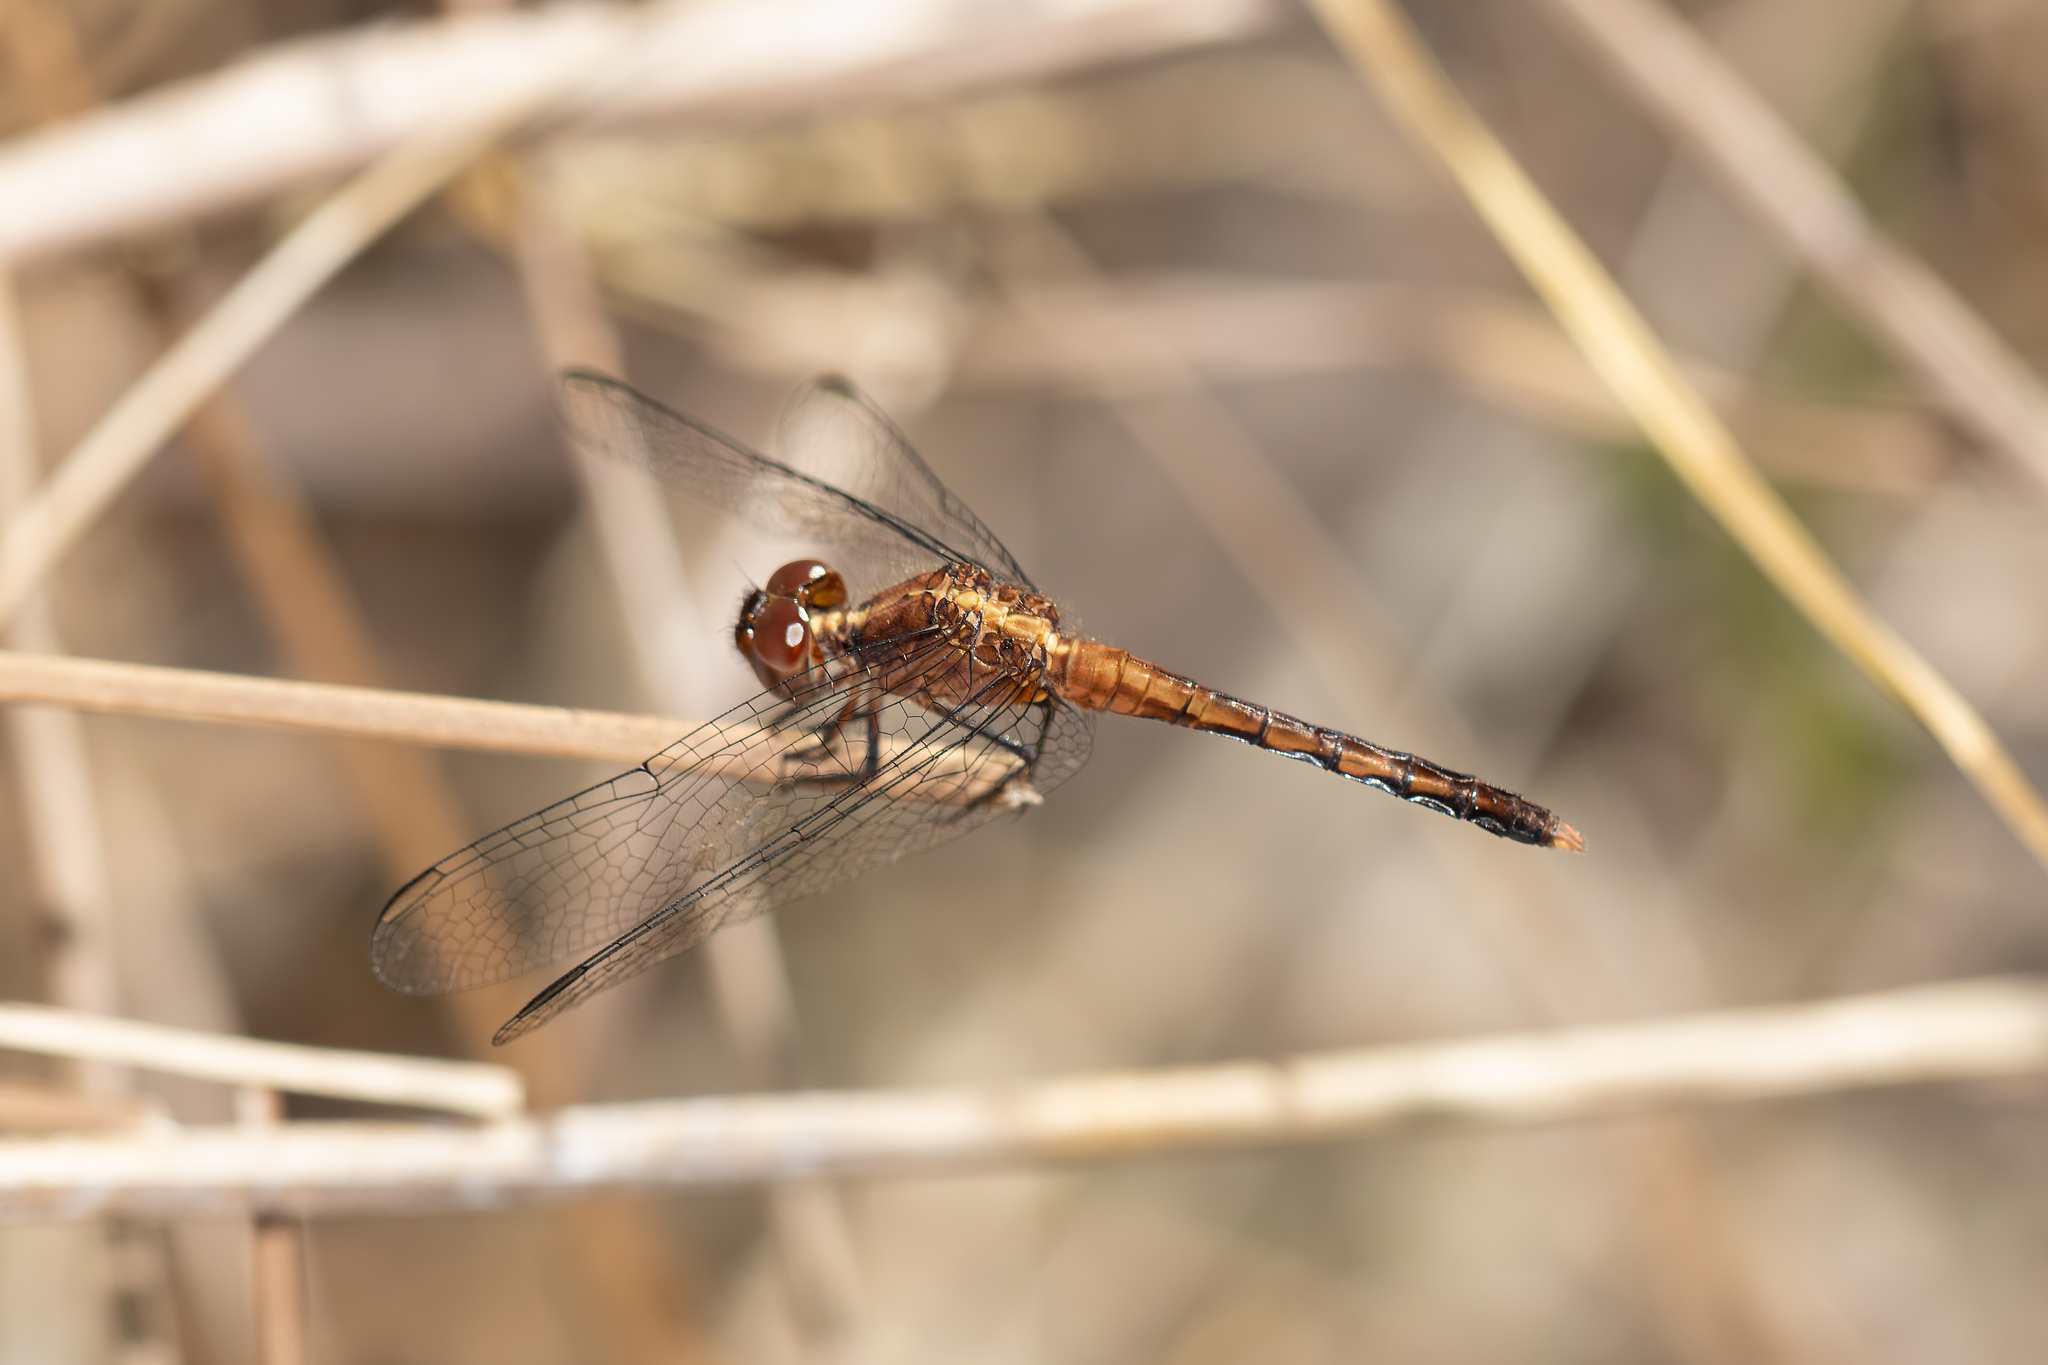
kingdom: Animalia
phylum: Arthropoda
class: Insecta
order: Odonata
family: Libellulidae
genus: Erythrodiplax
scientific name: Erythrodiplax minuscula
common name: Little blue dragonlet
